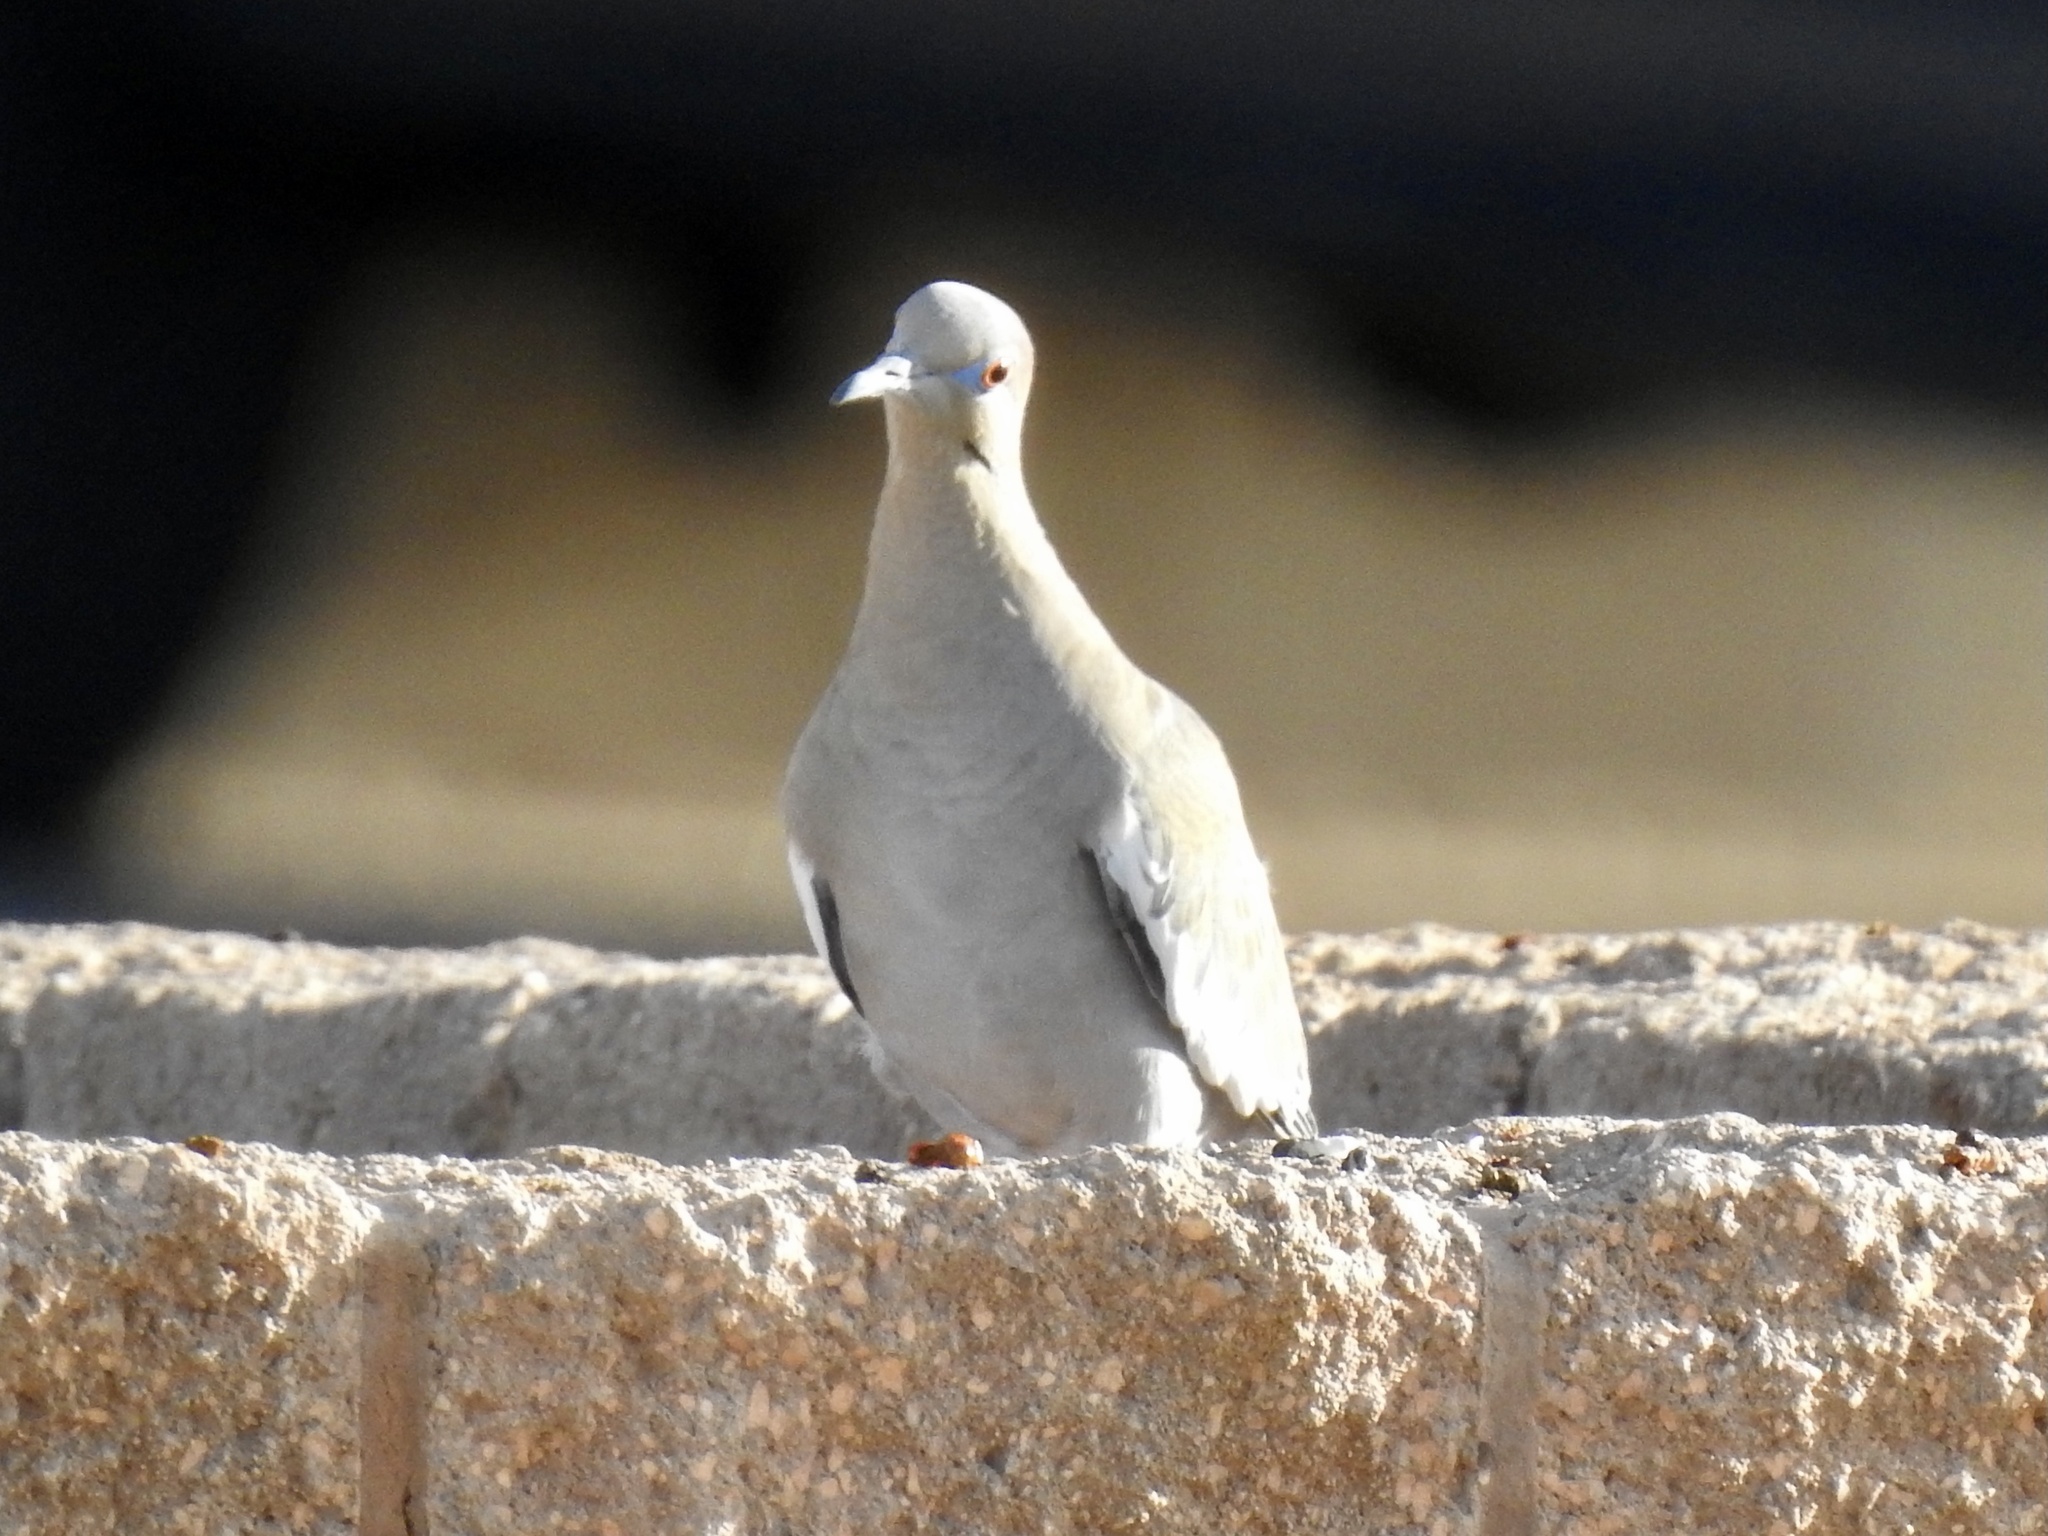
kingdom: Animalia
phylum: Chordata
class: Aves
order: Columbiformes
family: Columbidae
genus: Zenaida
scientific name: Zenaida asiatica
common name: White-winged dove
